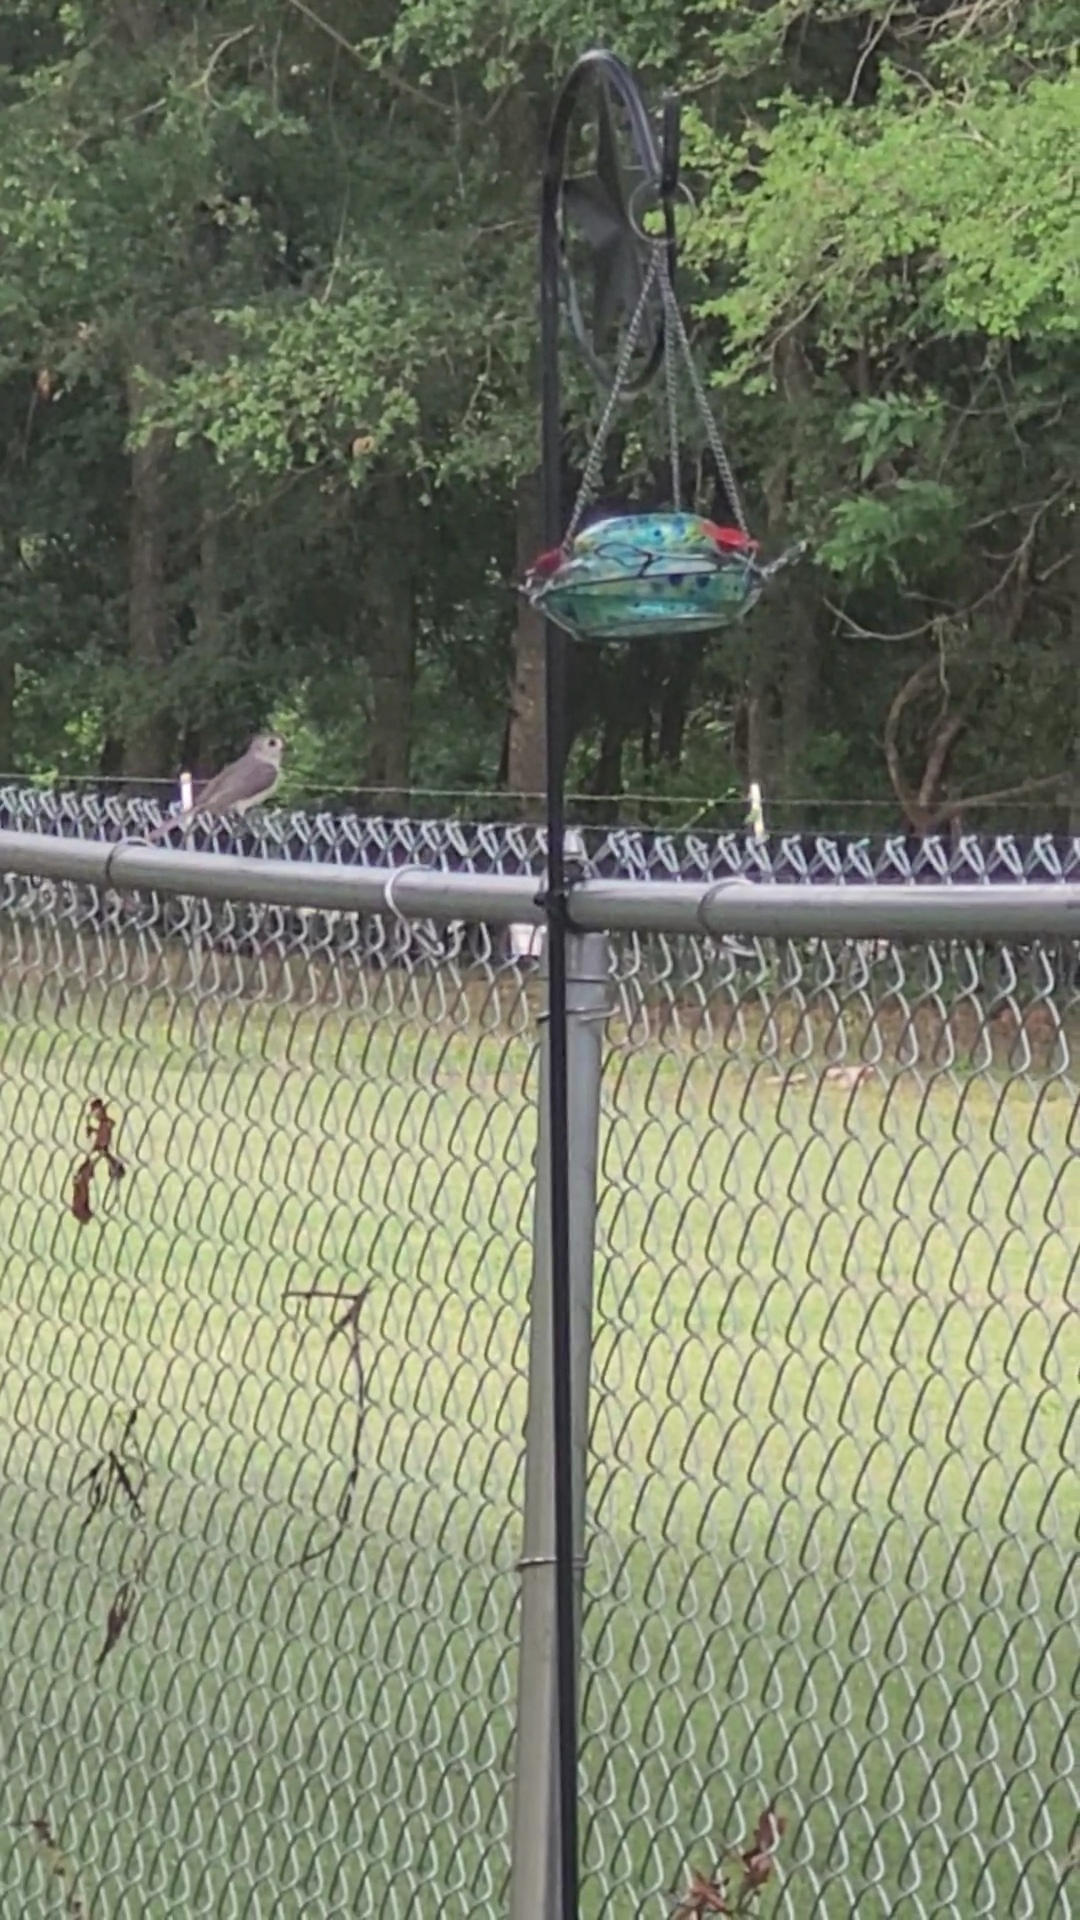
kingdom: Animalia
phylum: Chordata
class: Aves
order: Passeriformes
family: Paridae
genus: Baeolophus
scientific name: Baeolophus bicolor
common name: Tufted titmouse
